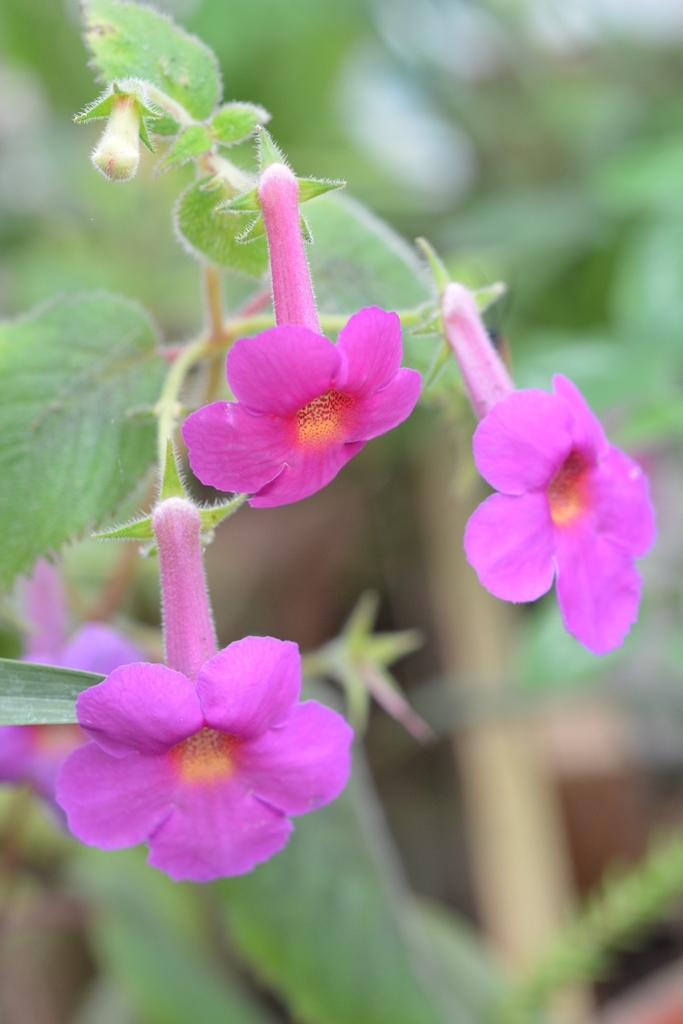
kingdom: Plantae
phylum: Tracheophyta
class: Magnoliopsida
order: Lamiales
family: Gesneriaceae
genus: Achimenes
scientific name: Achimenes skinneri
